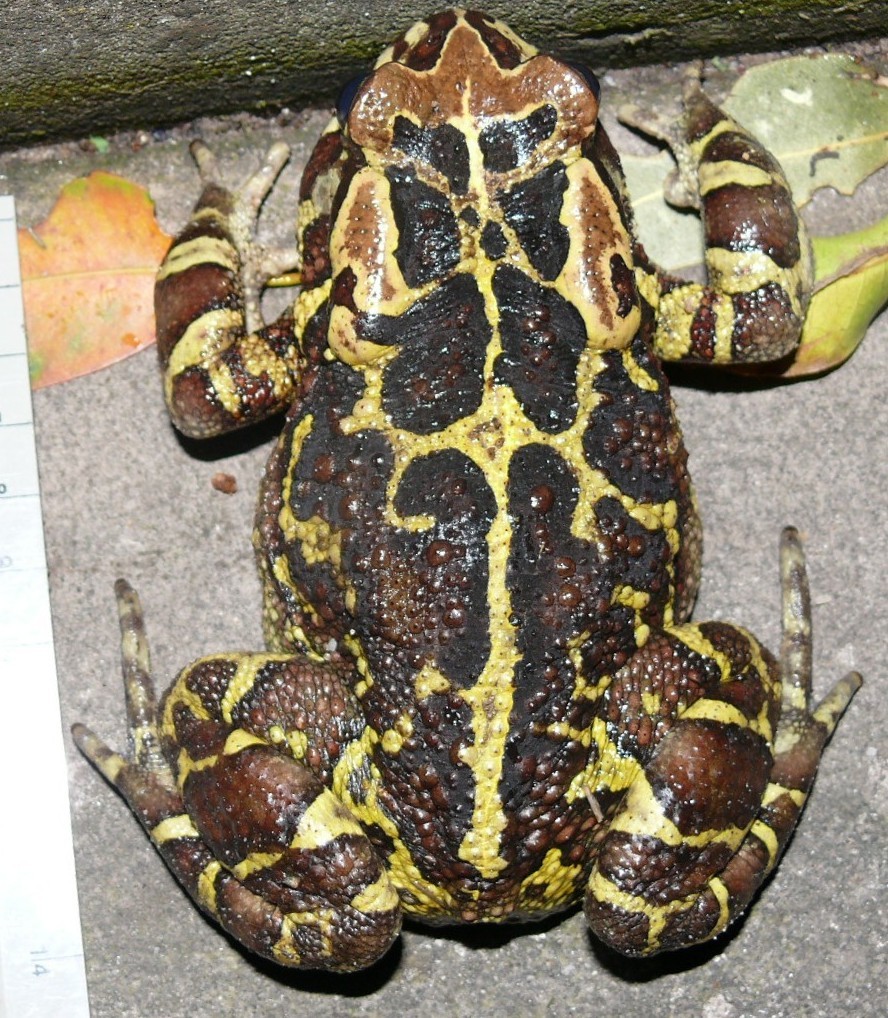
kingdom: Animalia
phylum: Chordata
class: Amphibia
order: Anura
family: Bufonidae
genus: Sclerophrys
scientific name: Sclerophrys pantherina
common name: Panther toad
